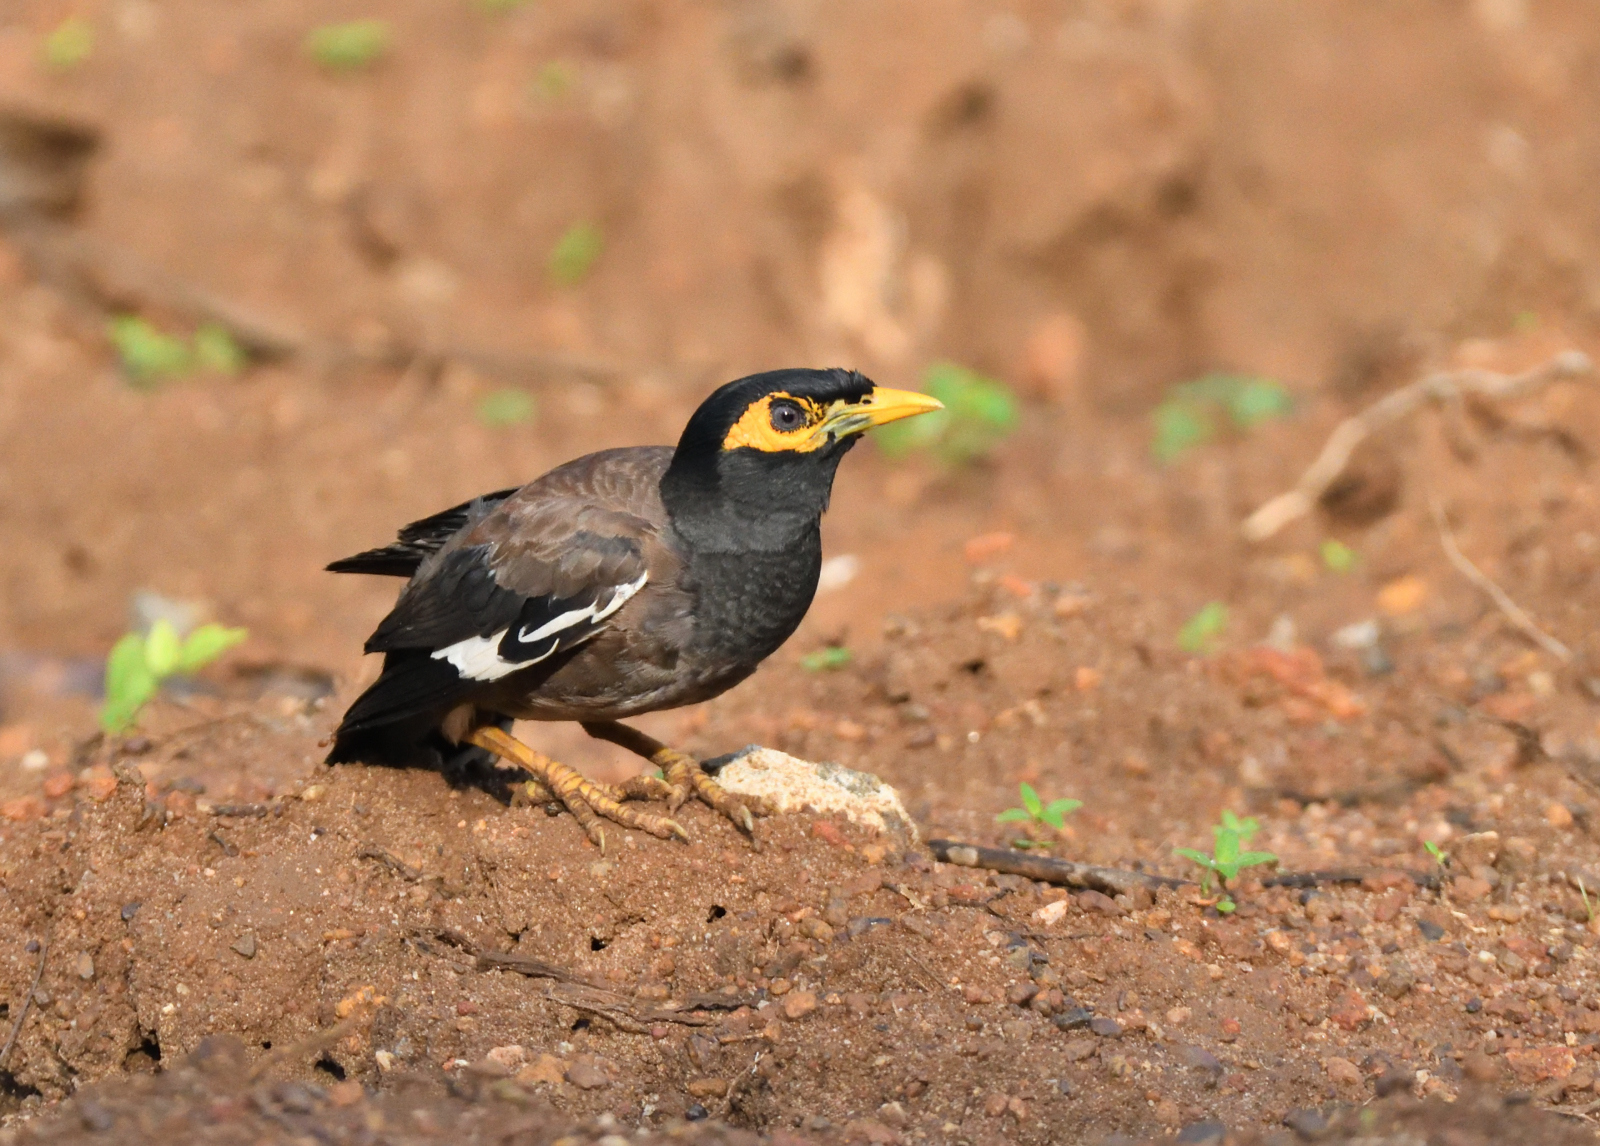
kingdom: Animalia
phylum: Chordata
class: Aves
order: Passeriformes
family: Sturnidae
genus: Acridotheres
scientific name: Acridotheres tristis
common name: Common myna
